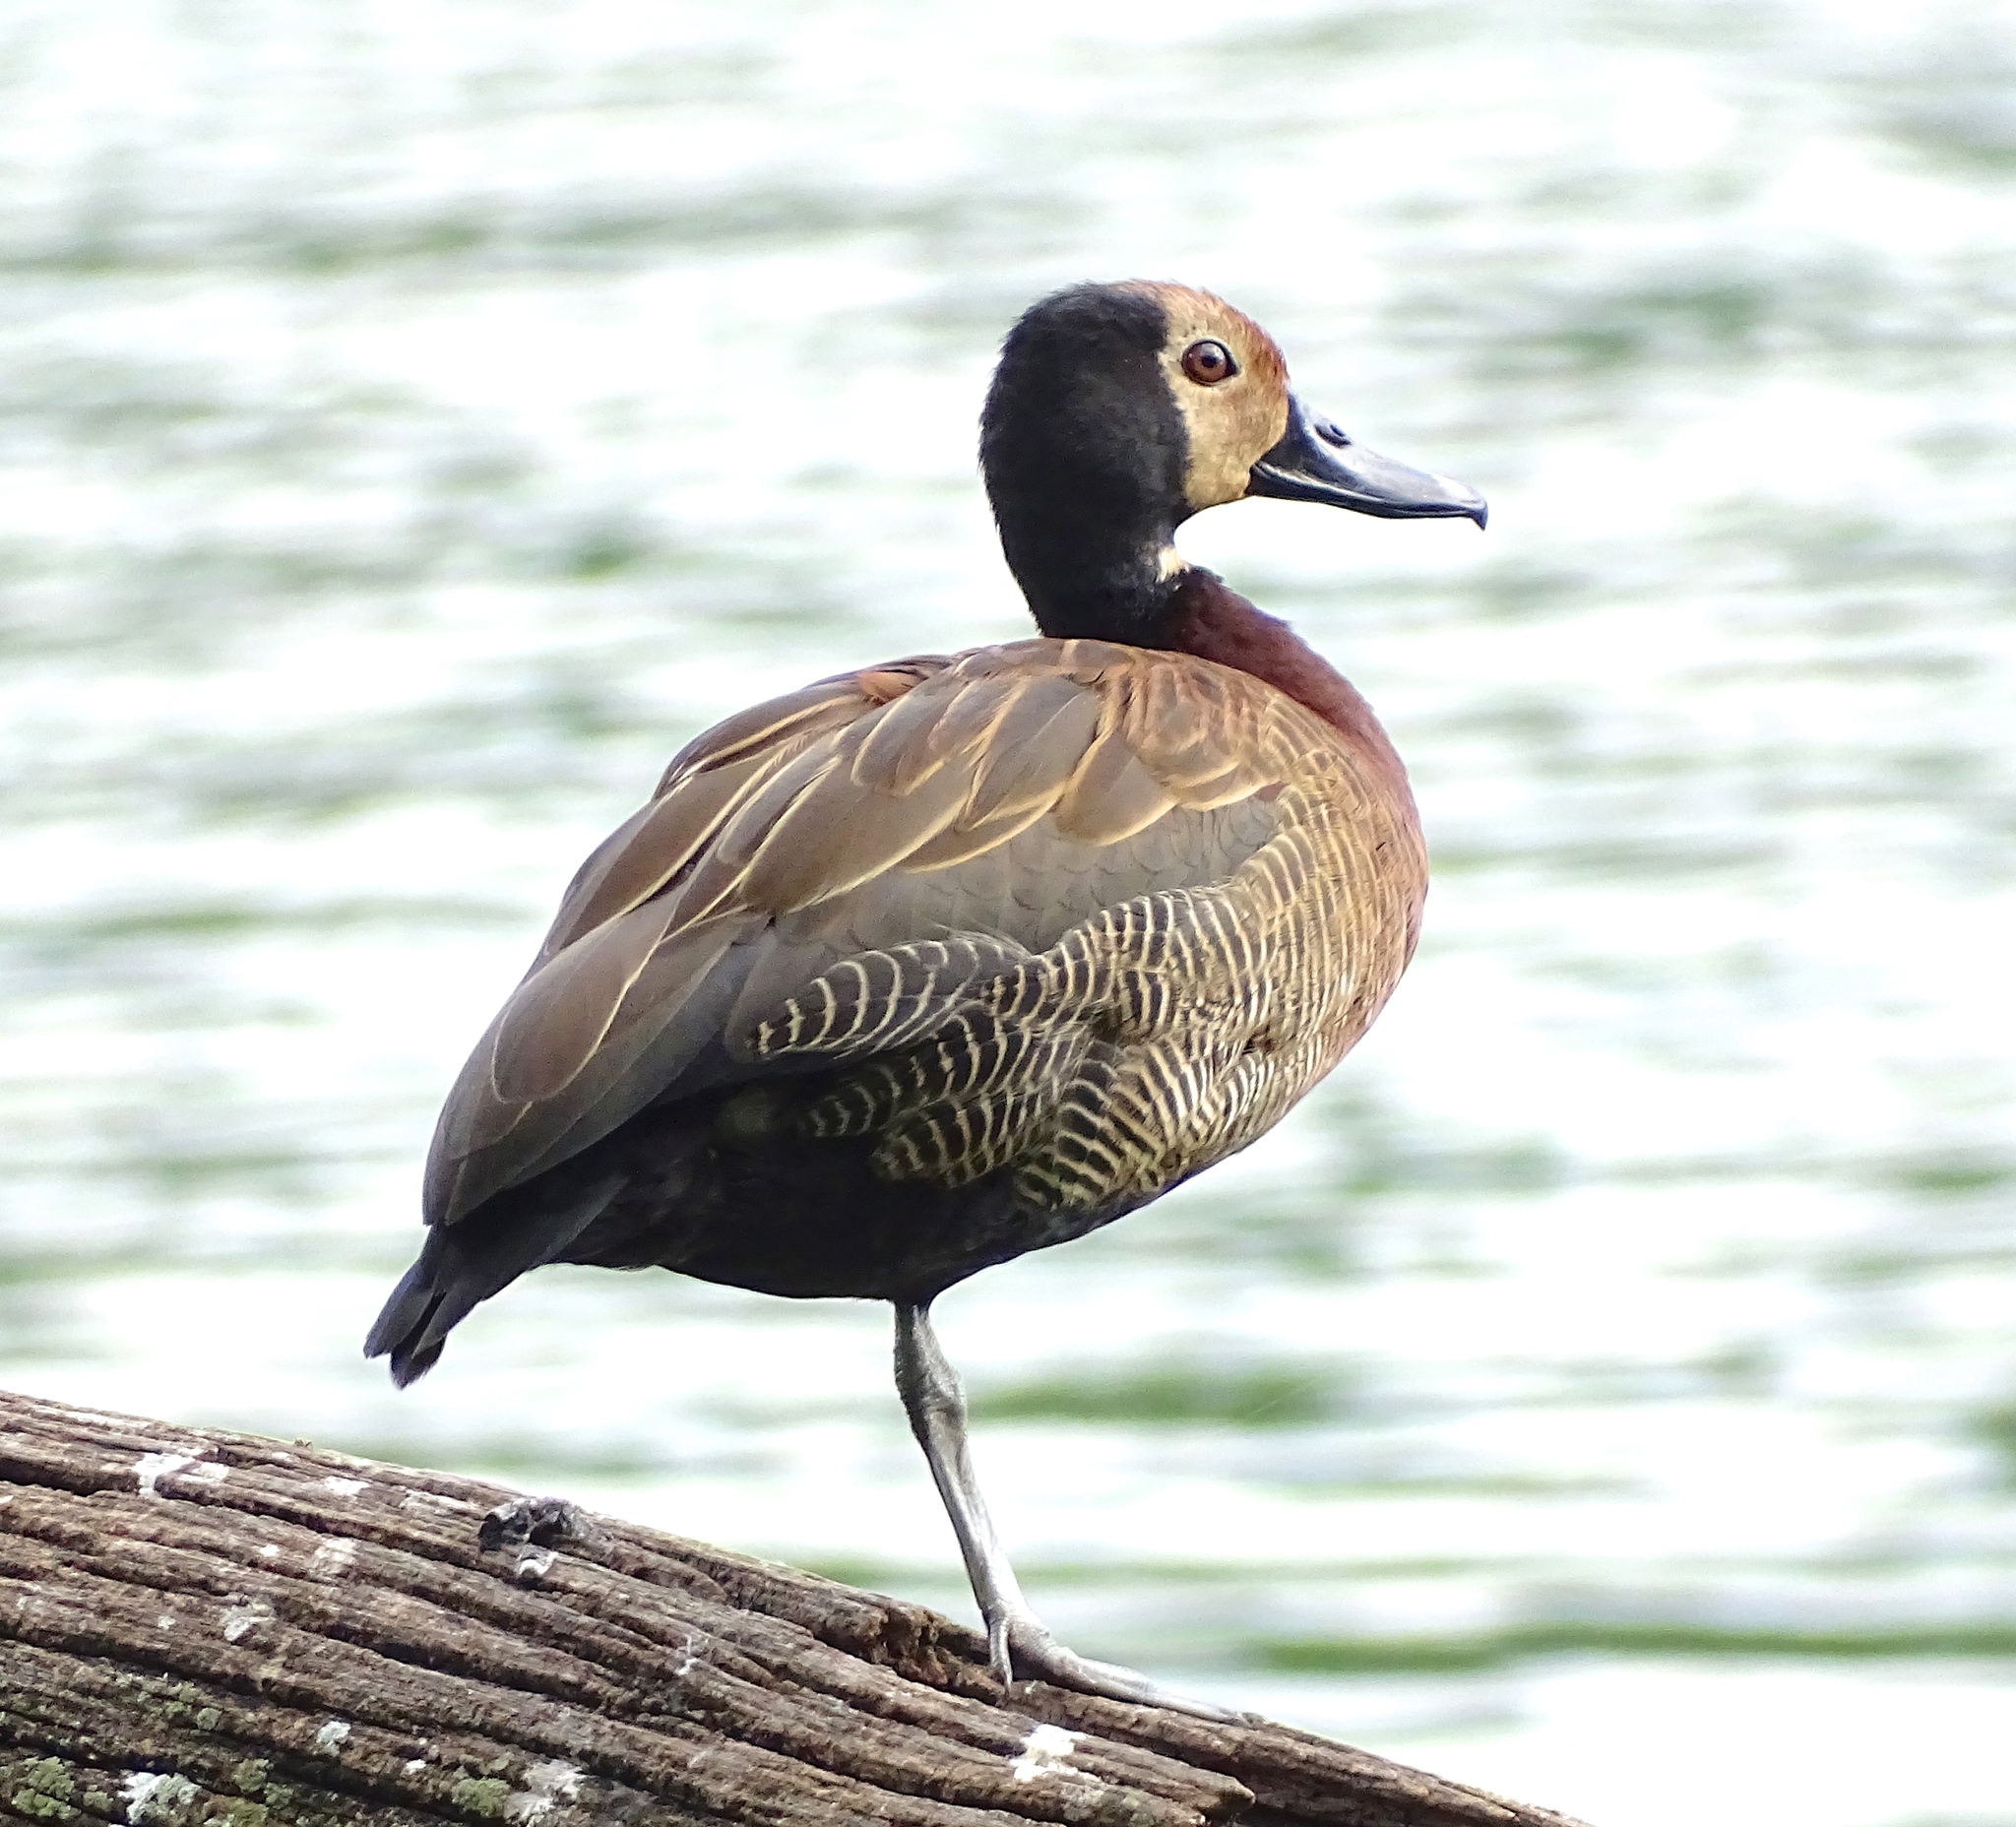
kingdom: Animalia
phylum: Chordata
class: Aves
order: Anseriformes
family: Anatidae
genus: Dendrocygna
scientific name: Dendrocygna viduata
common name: White-faced whistling duck
